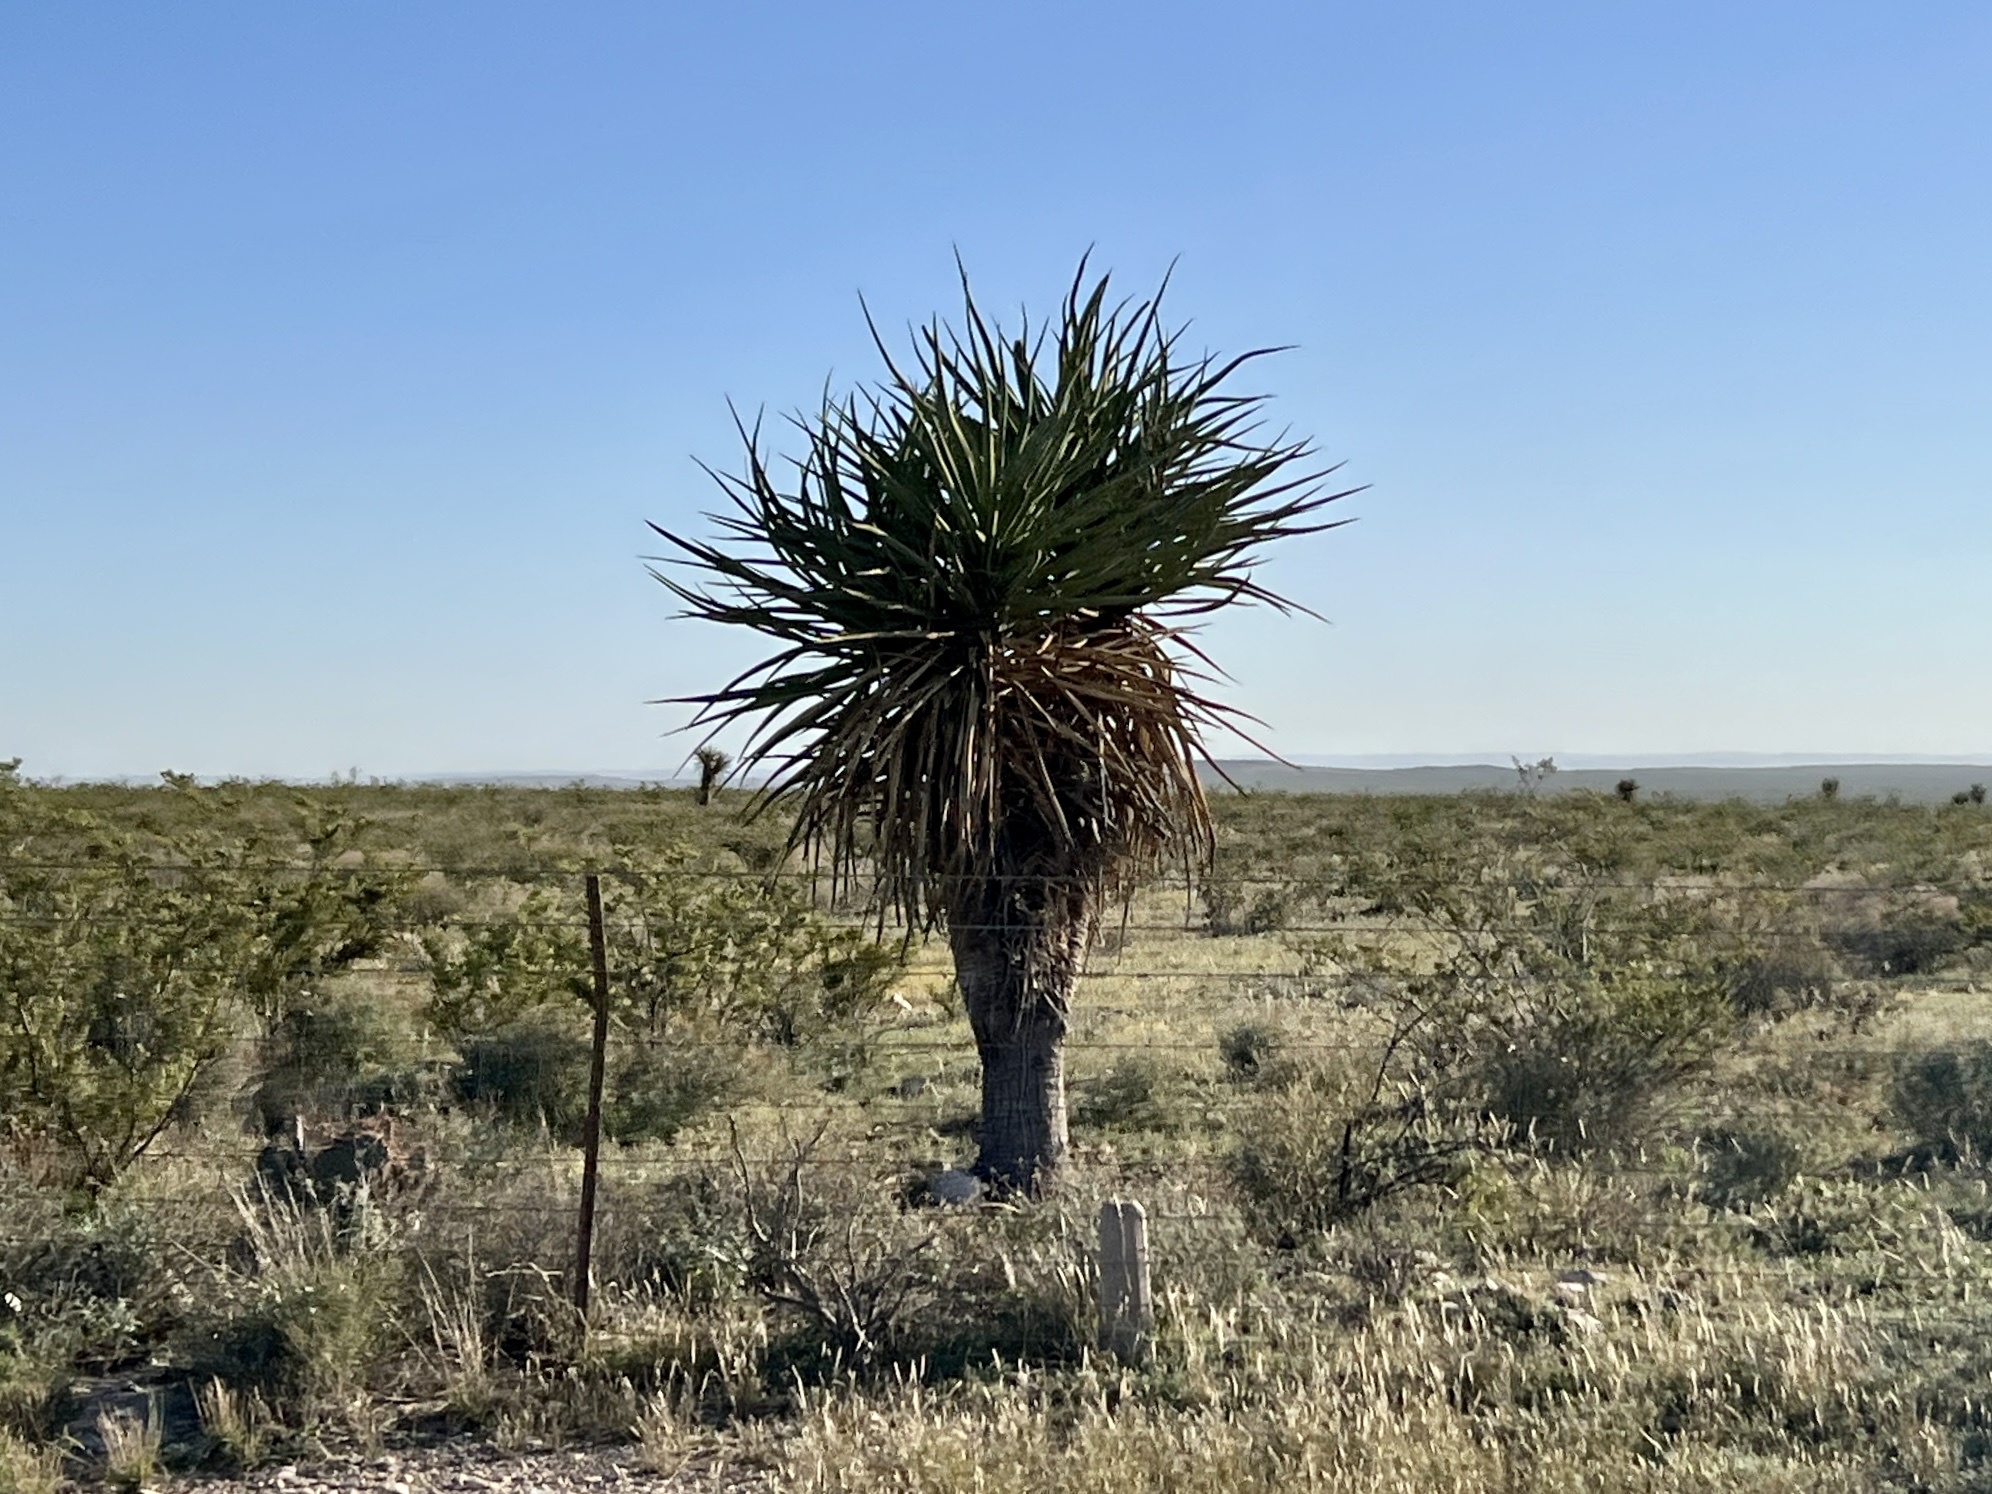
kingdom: Plantae
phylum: Tracheophyta
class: Liliopsida
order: Asparagales
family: Asparagaceae
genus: Yucca
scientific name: Yucca treculiana
